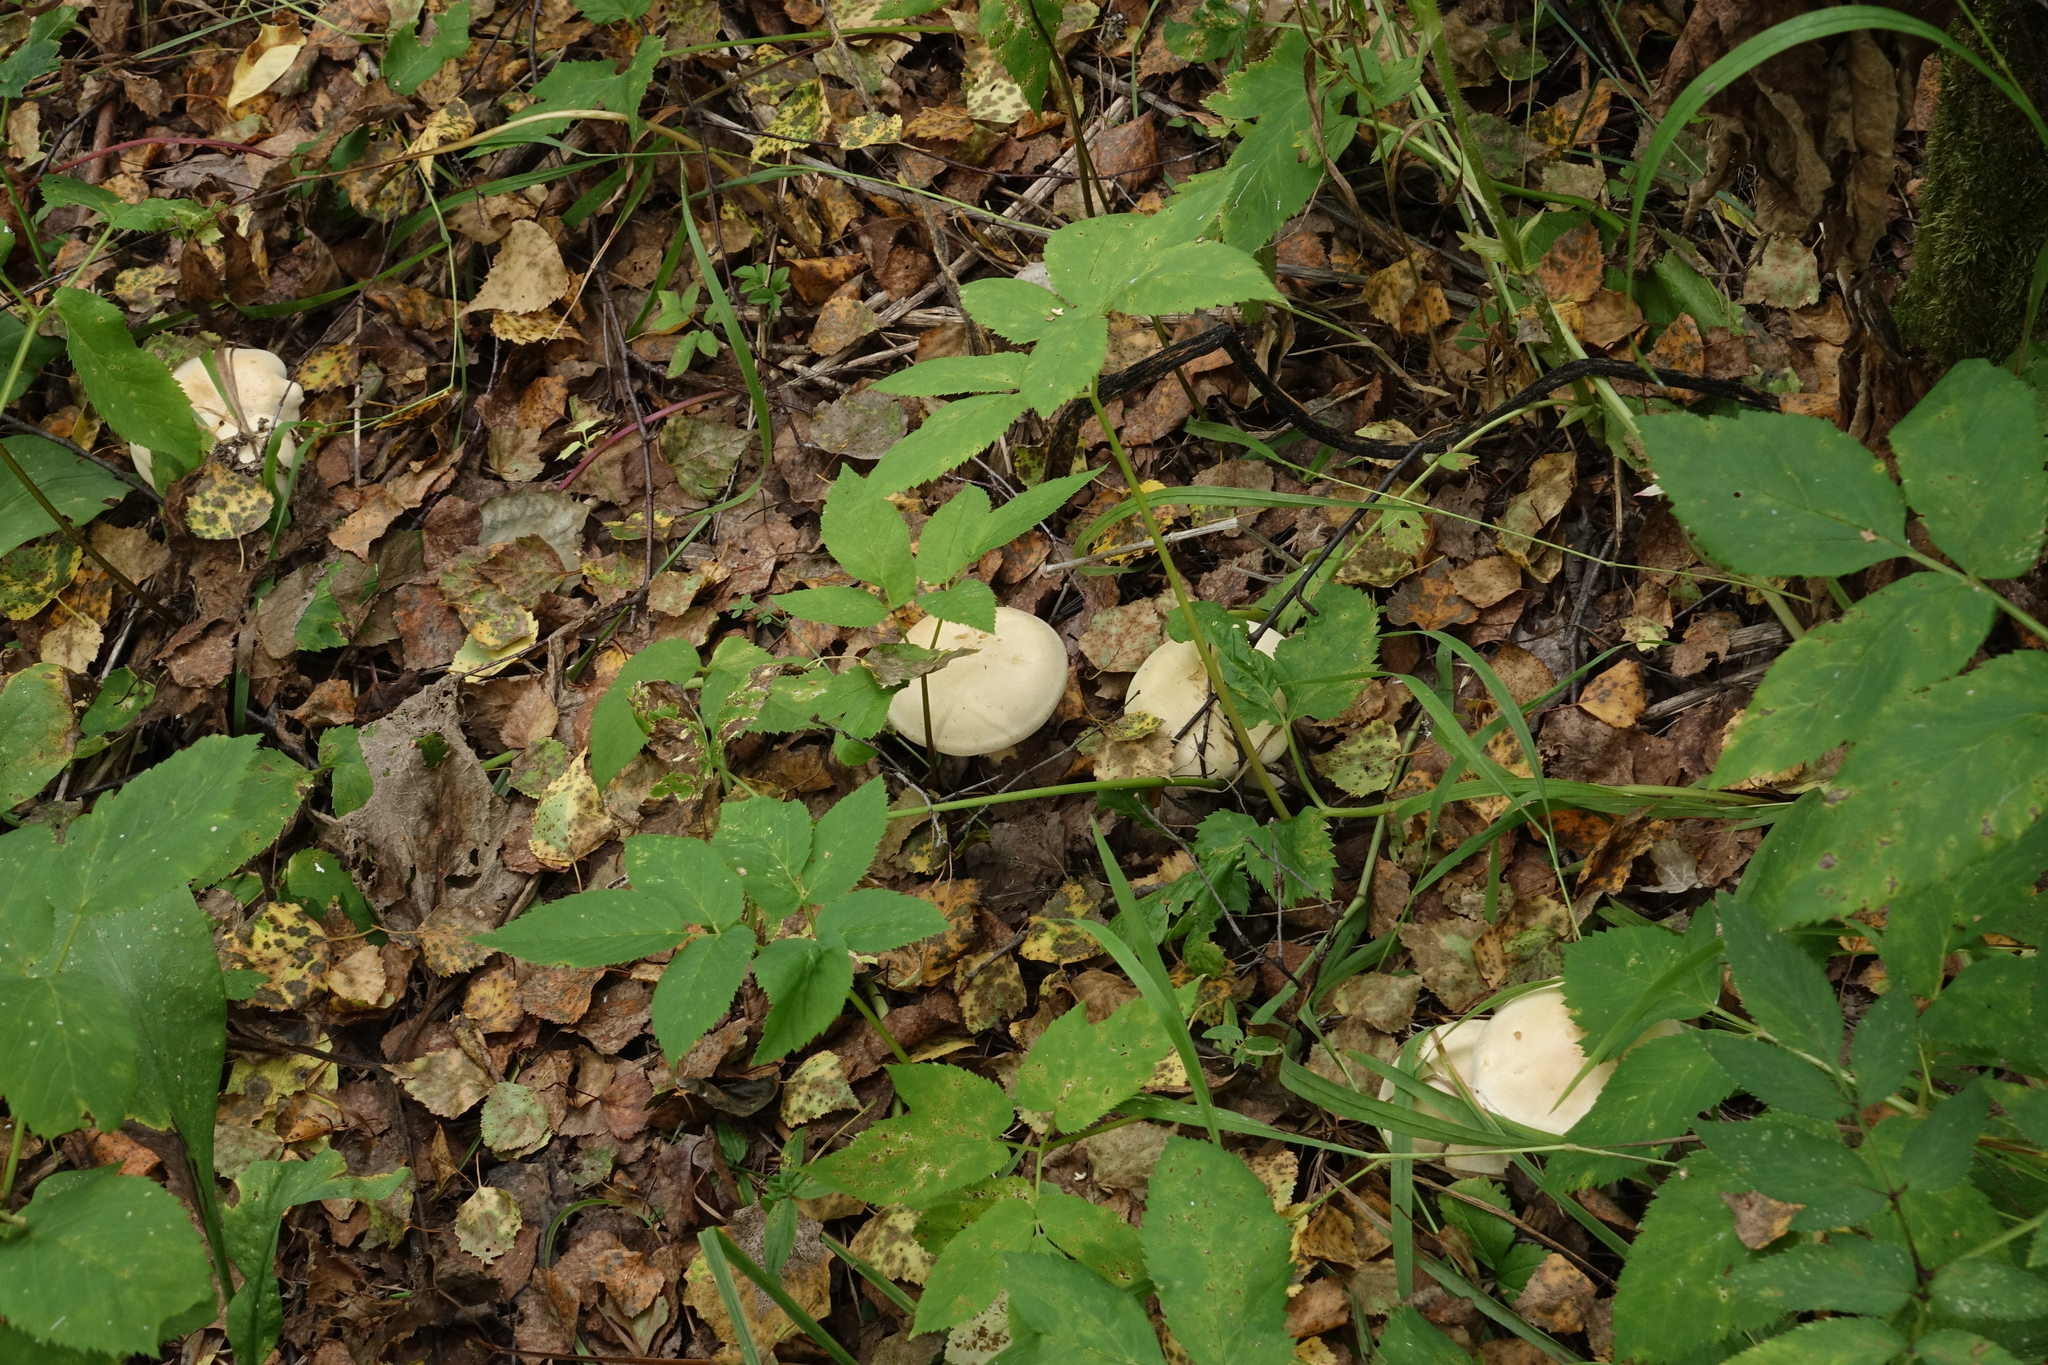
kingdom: Plantae
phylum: Tracheophyta
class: Magnoliopsida
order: Apiales
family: Apiaceae
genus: Aegopodium
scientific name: Aegopodium podagraria
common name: Ground-elder
